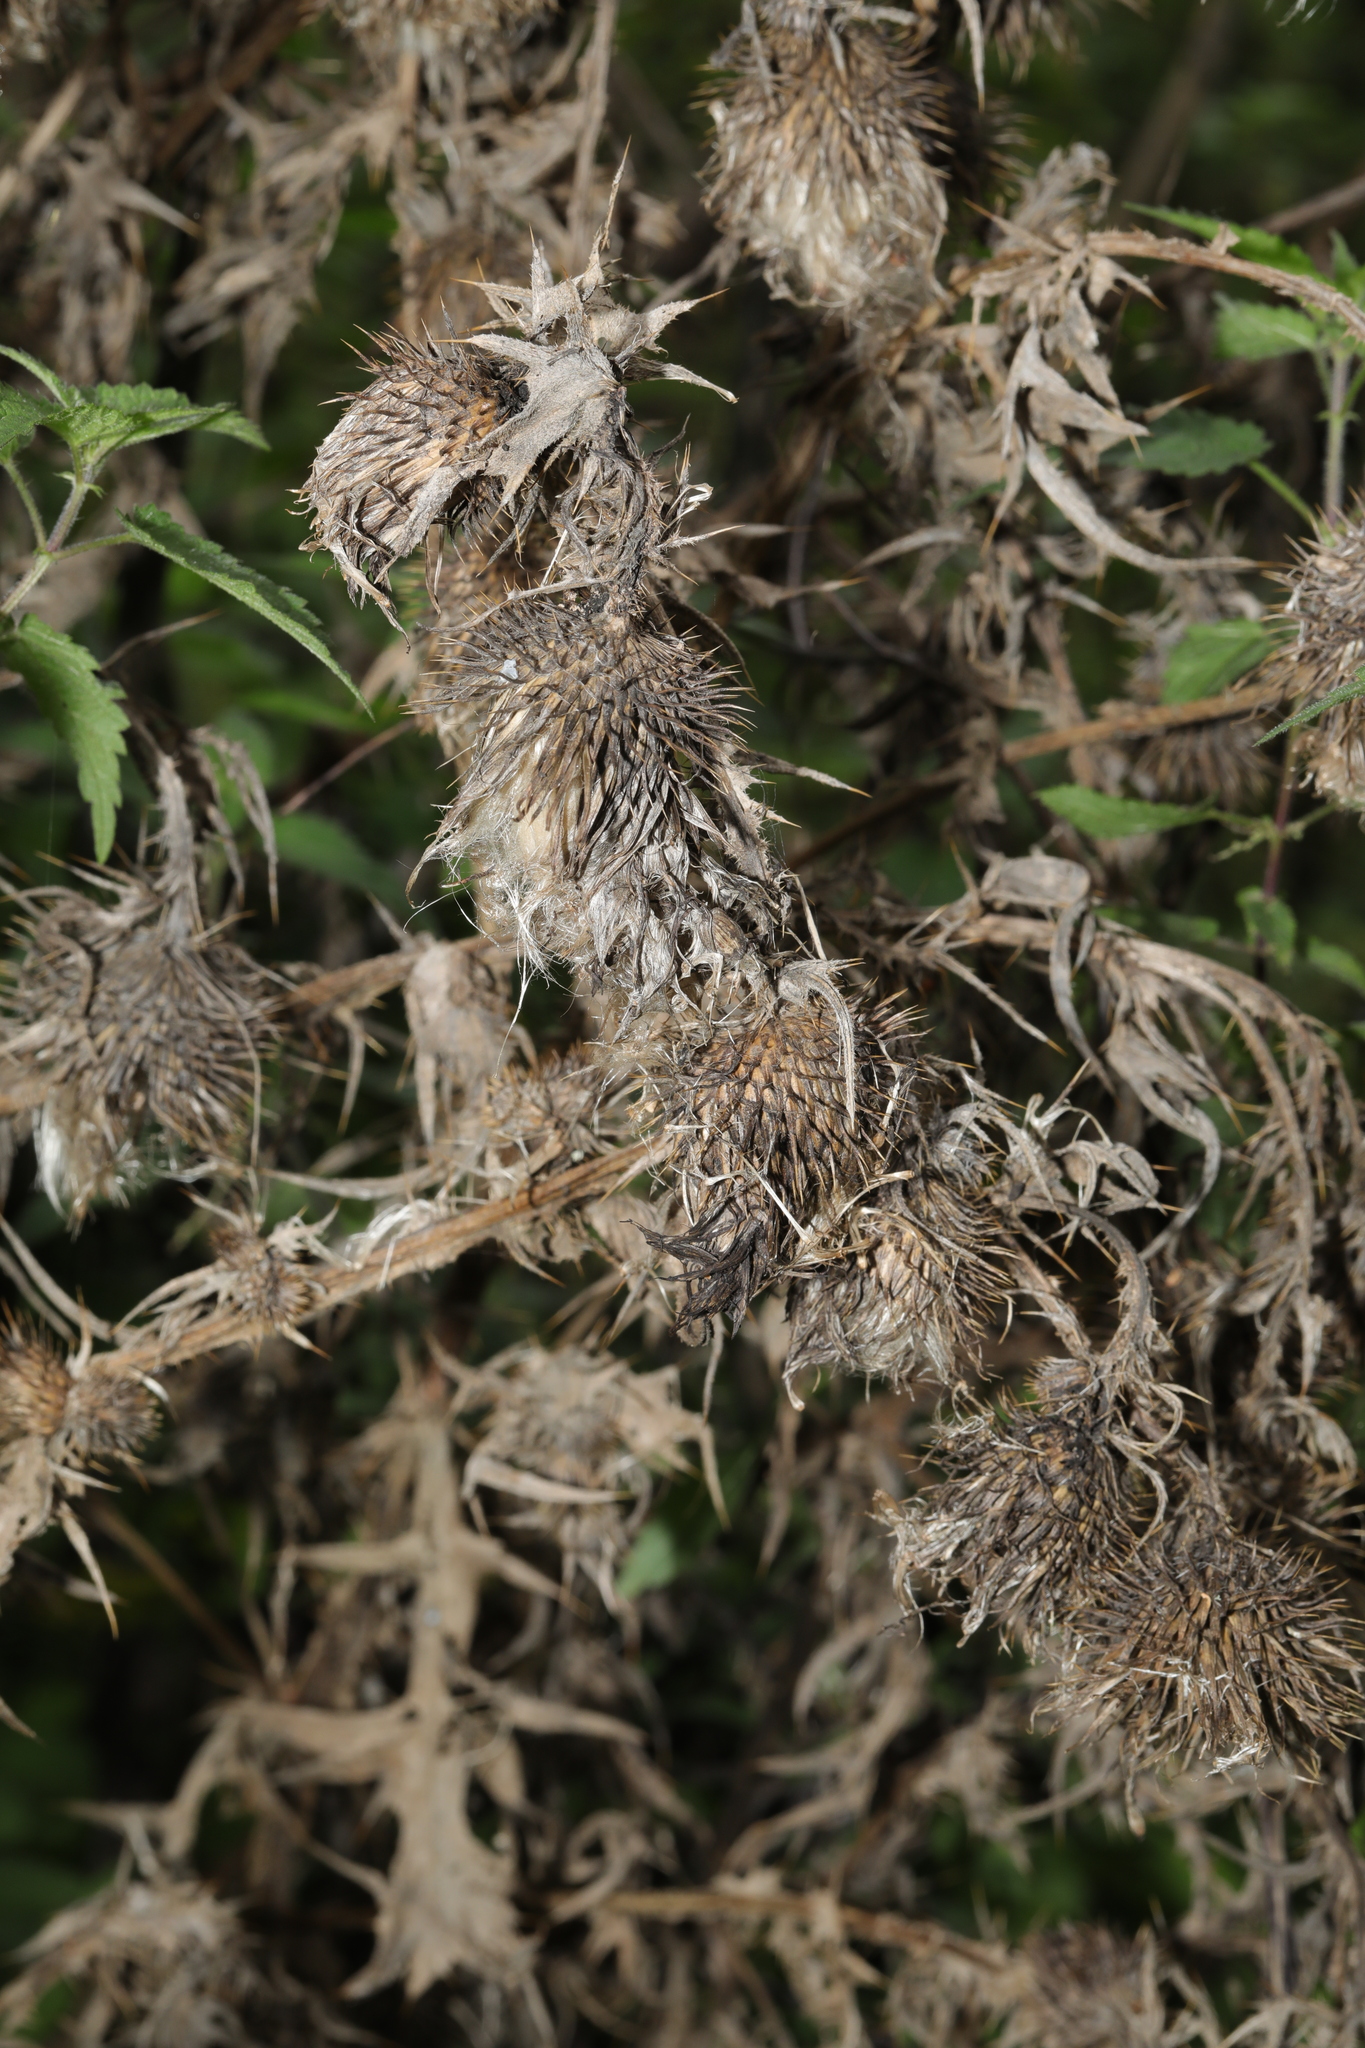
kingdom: Plantae
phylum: Tracheophyta
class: Magnoliopsida
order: Asterales
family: Asteraceae
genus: Cirsium
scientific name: Cirsium vulgare
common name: Bull thistle
